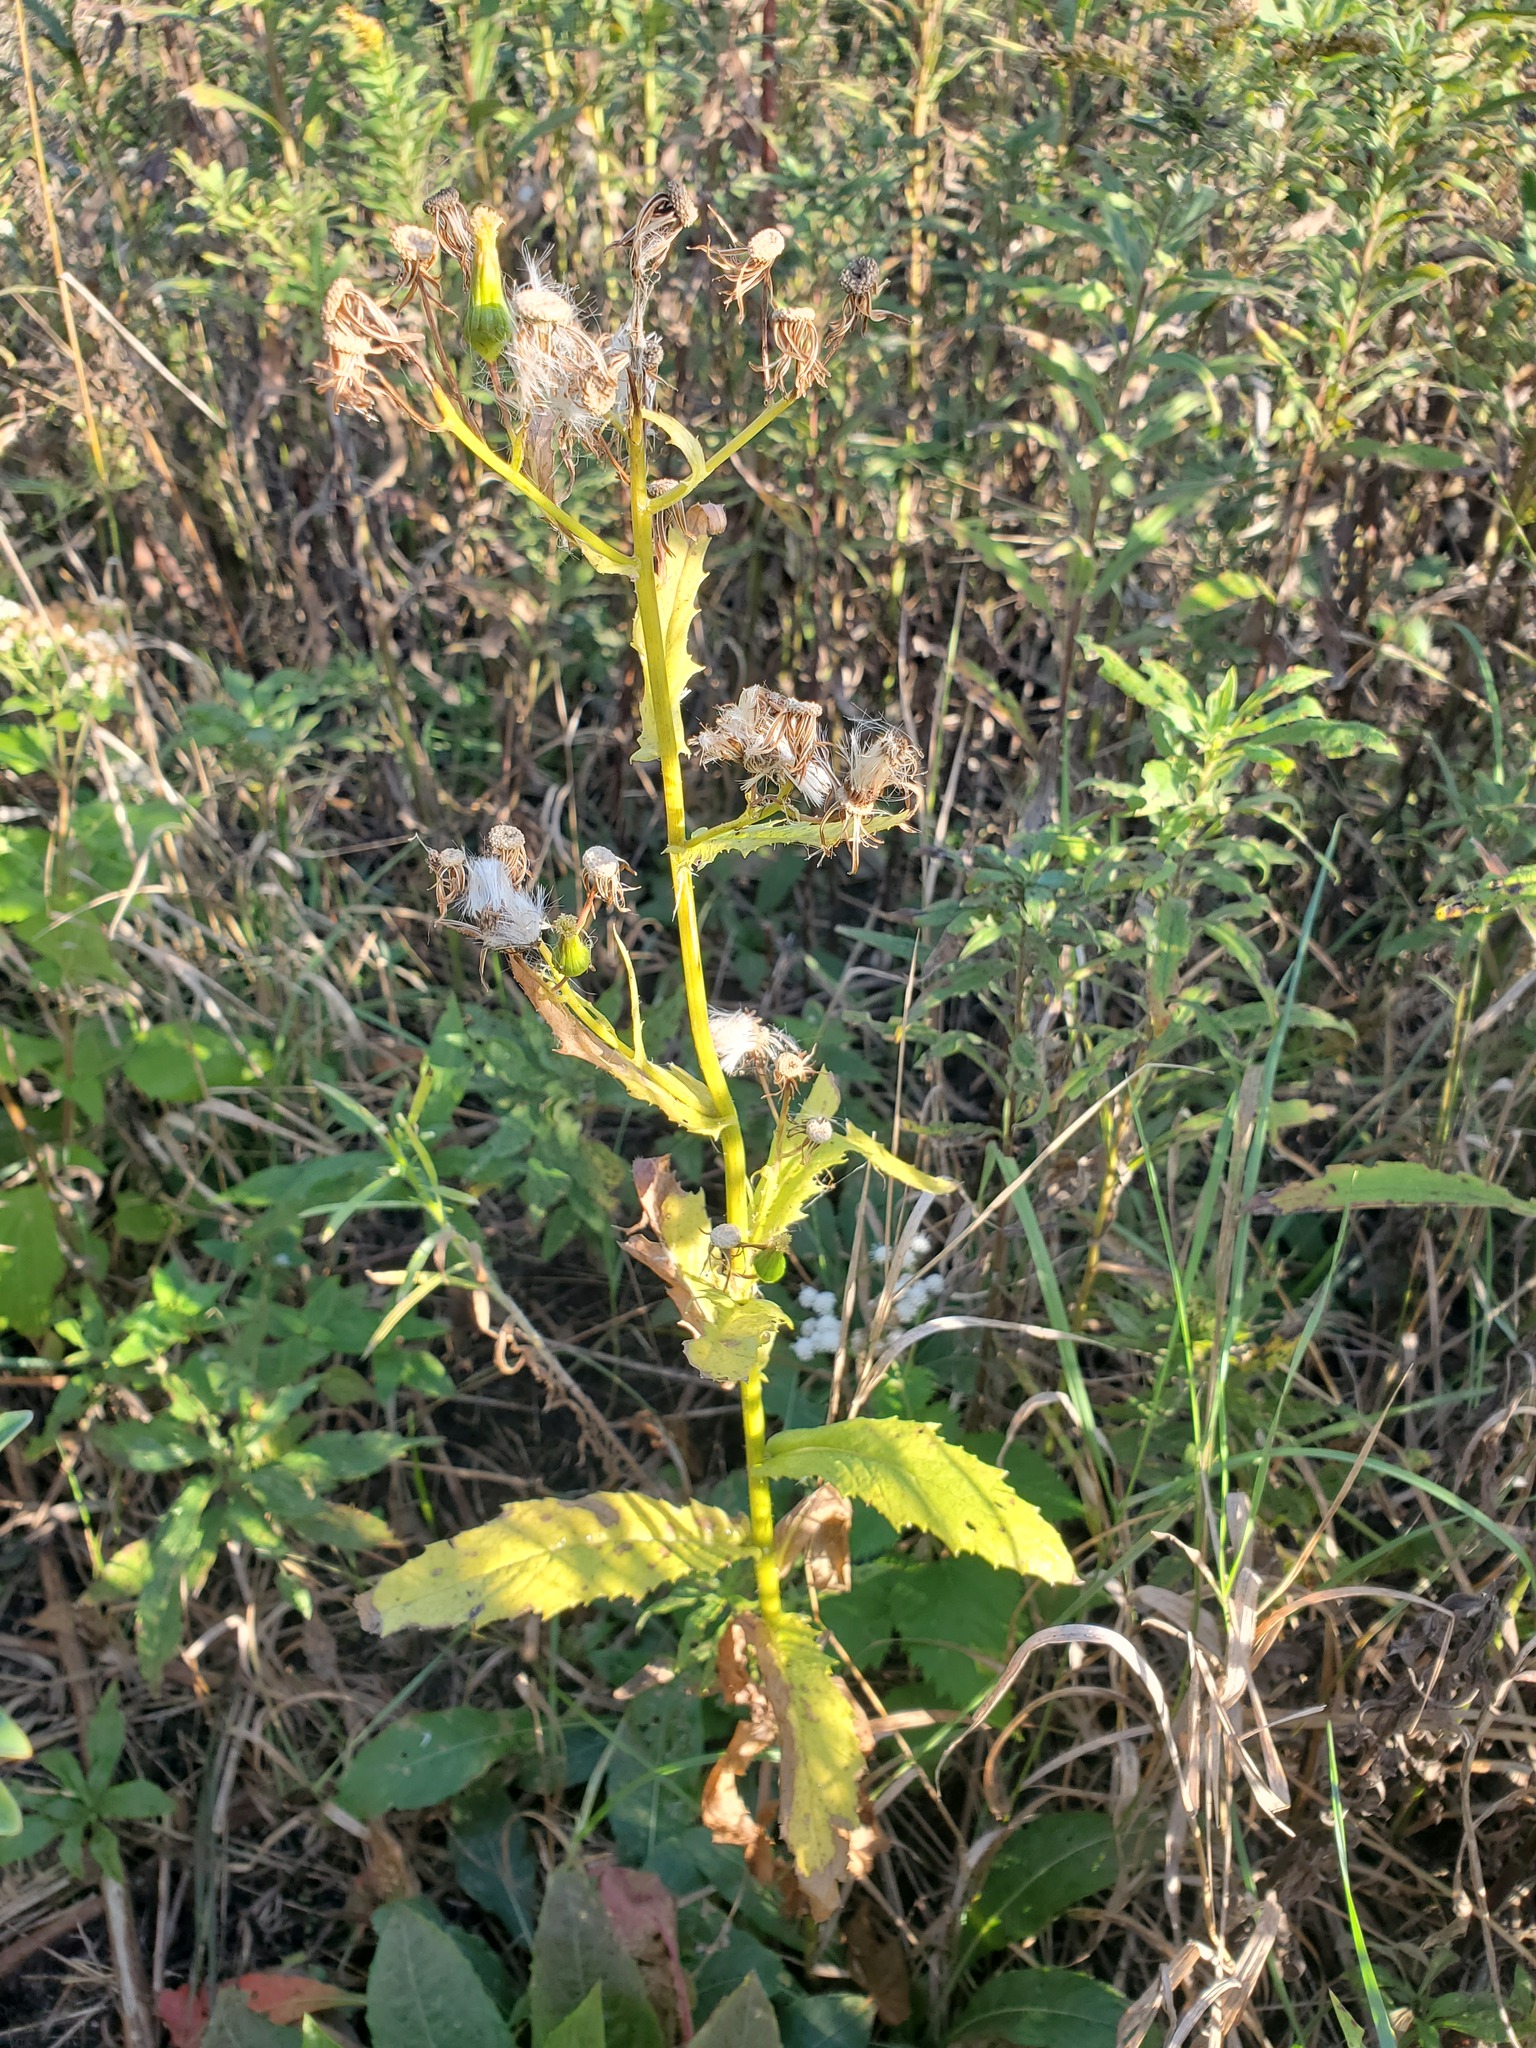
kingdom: Plantae
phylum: Tracheophyta
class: Magnoliopsida
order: Asterales
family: Asteraceae
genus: Erechtites
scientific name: Erechtites hieraciifolius
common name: American burnweed
